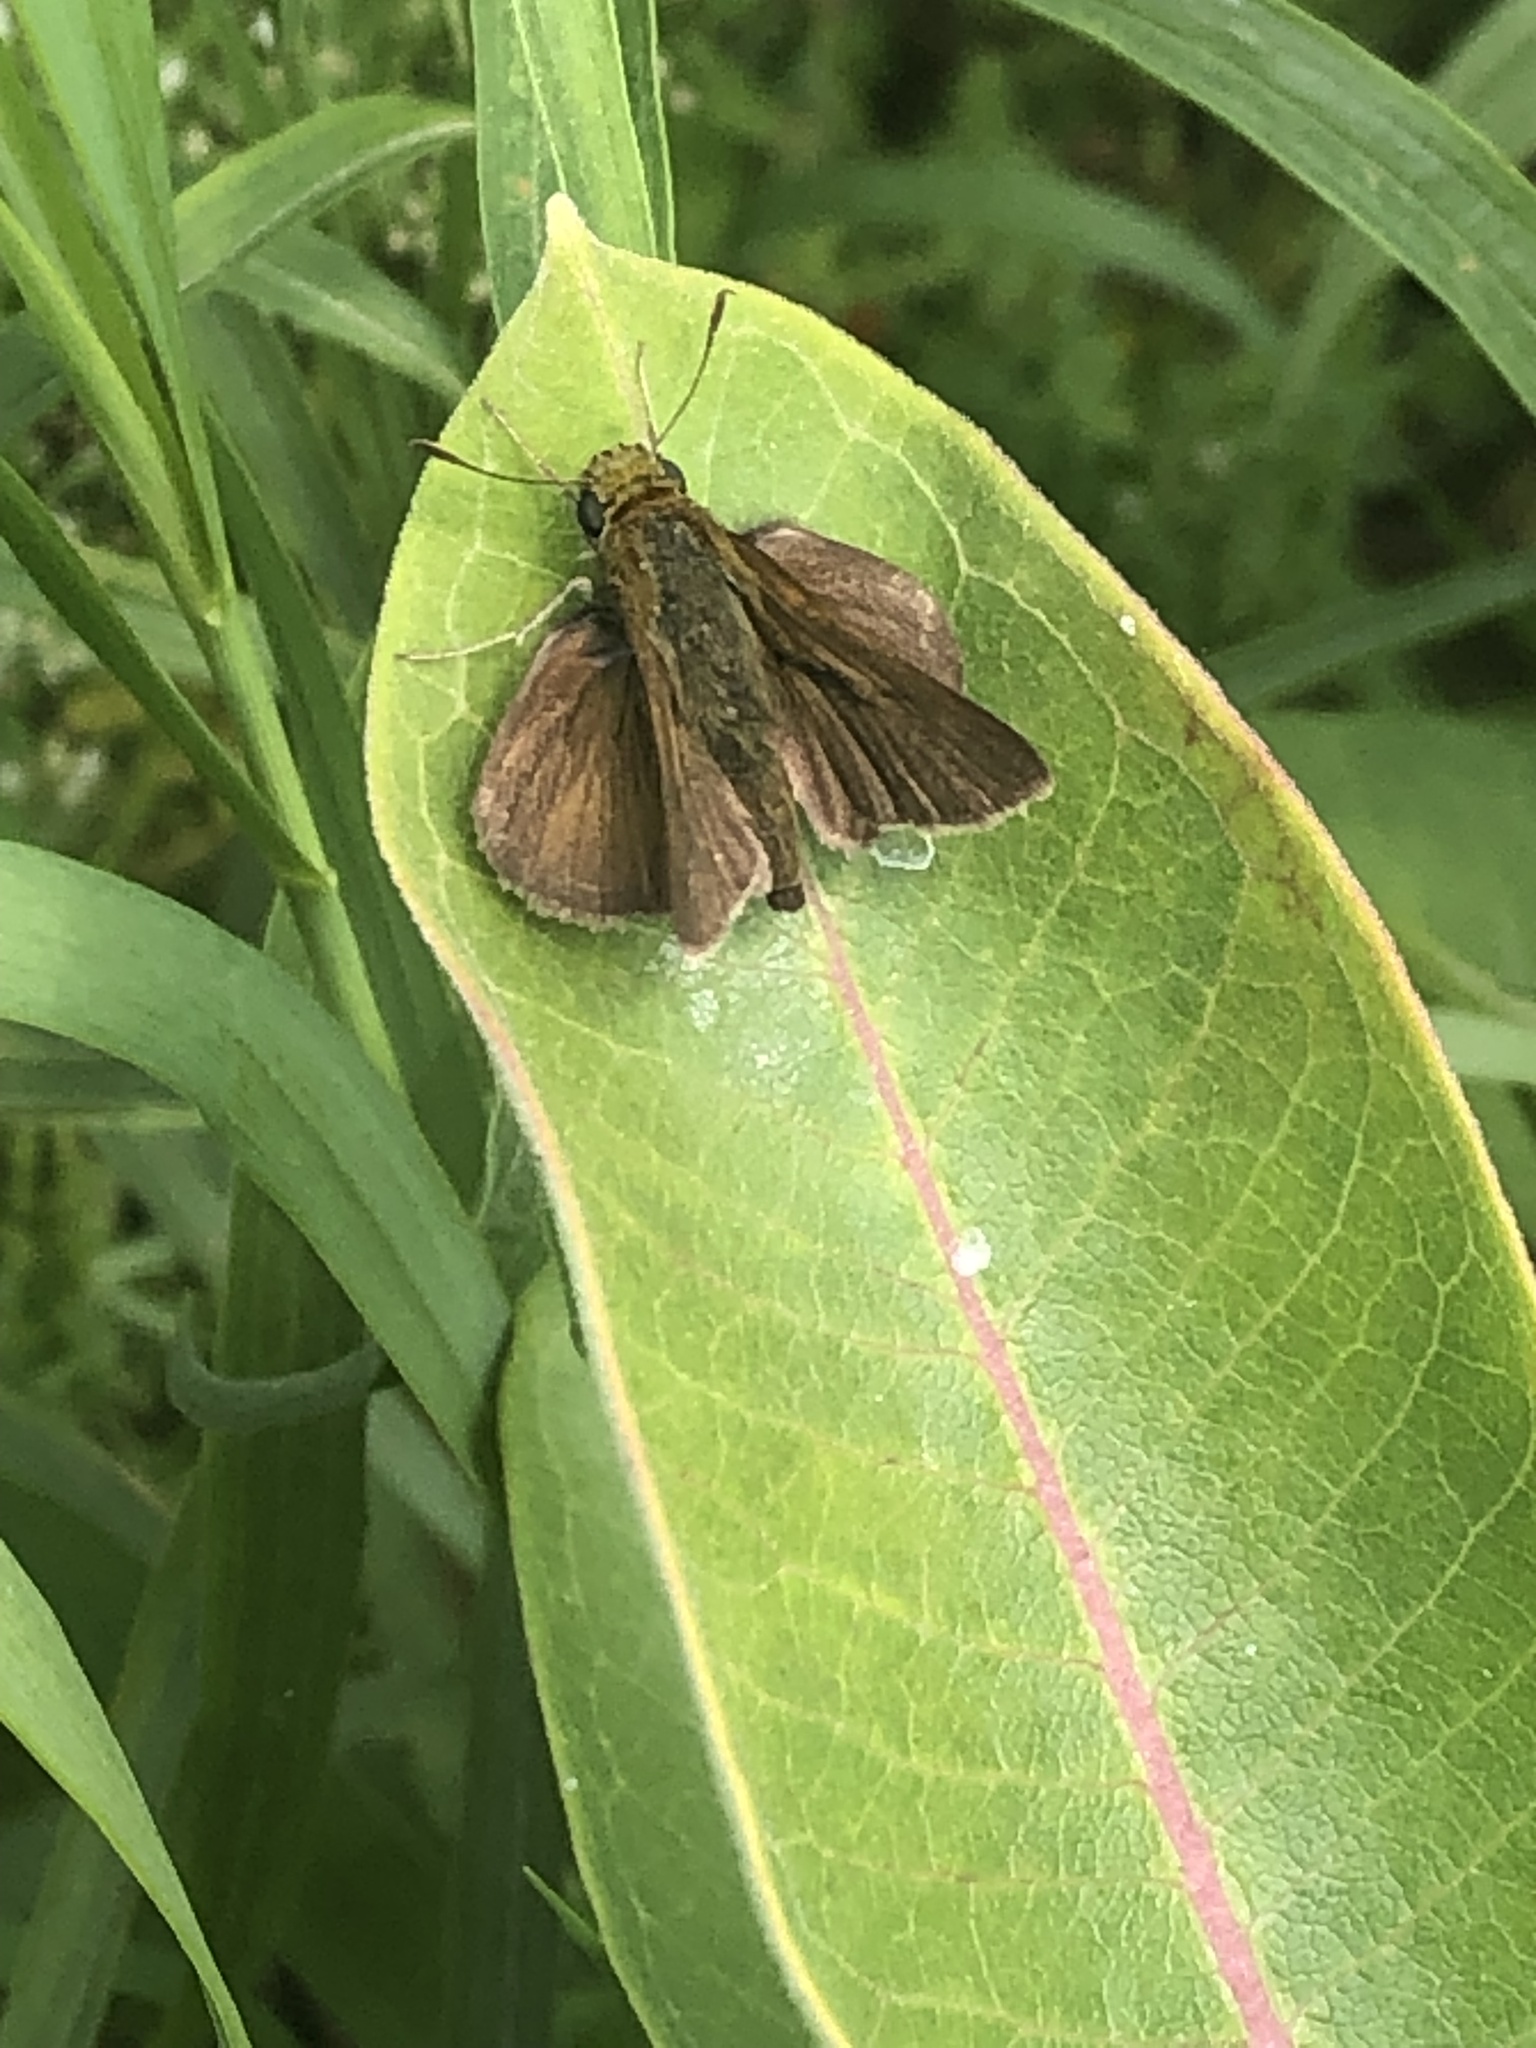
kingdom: Animalia
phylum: Arthropoda
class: Insecta
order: Lepidoptera
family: Hesperiidae
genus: Euphyes
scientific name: Euphyes vestris
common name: Dun skipper
